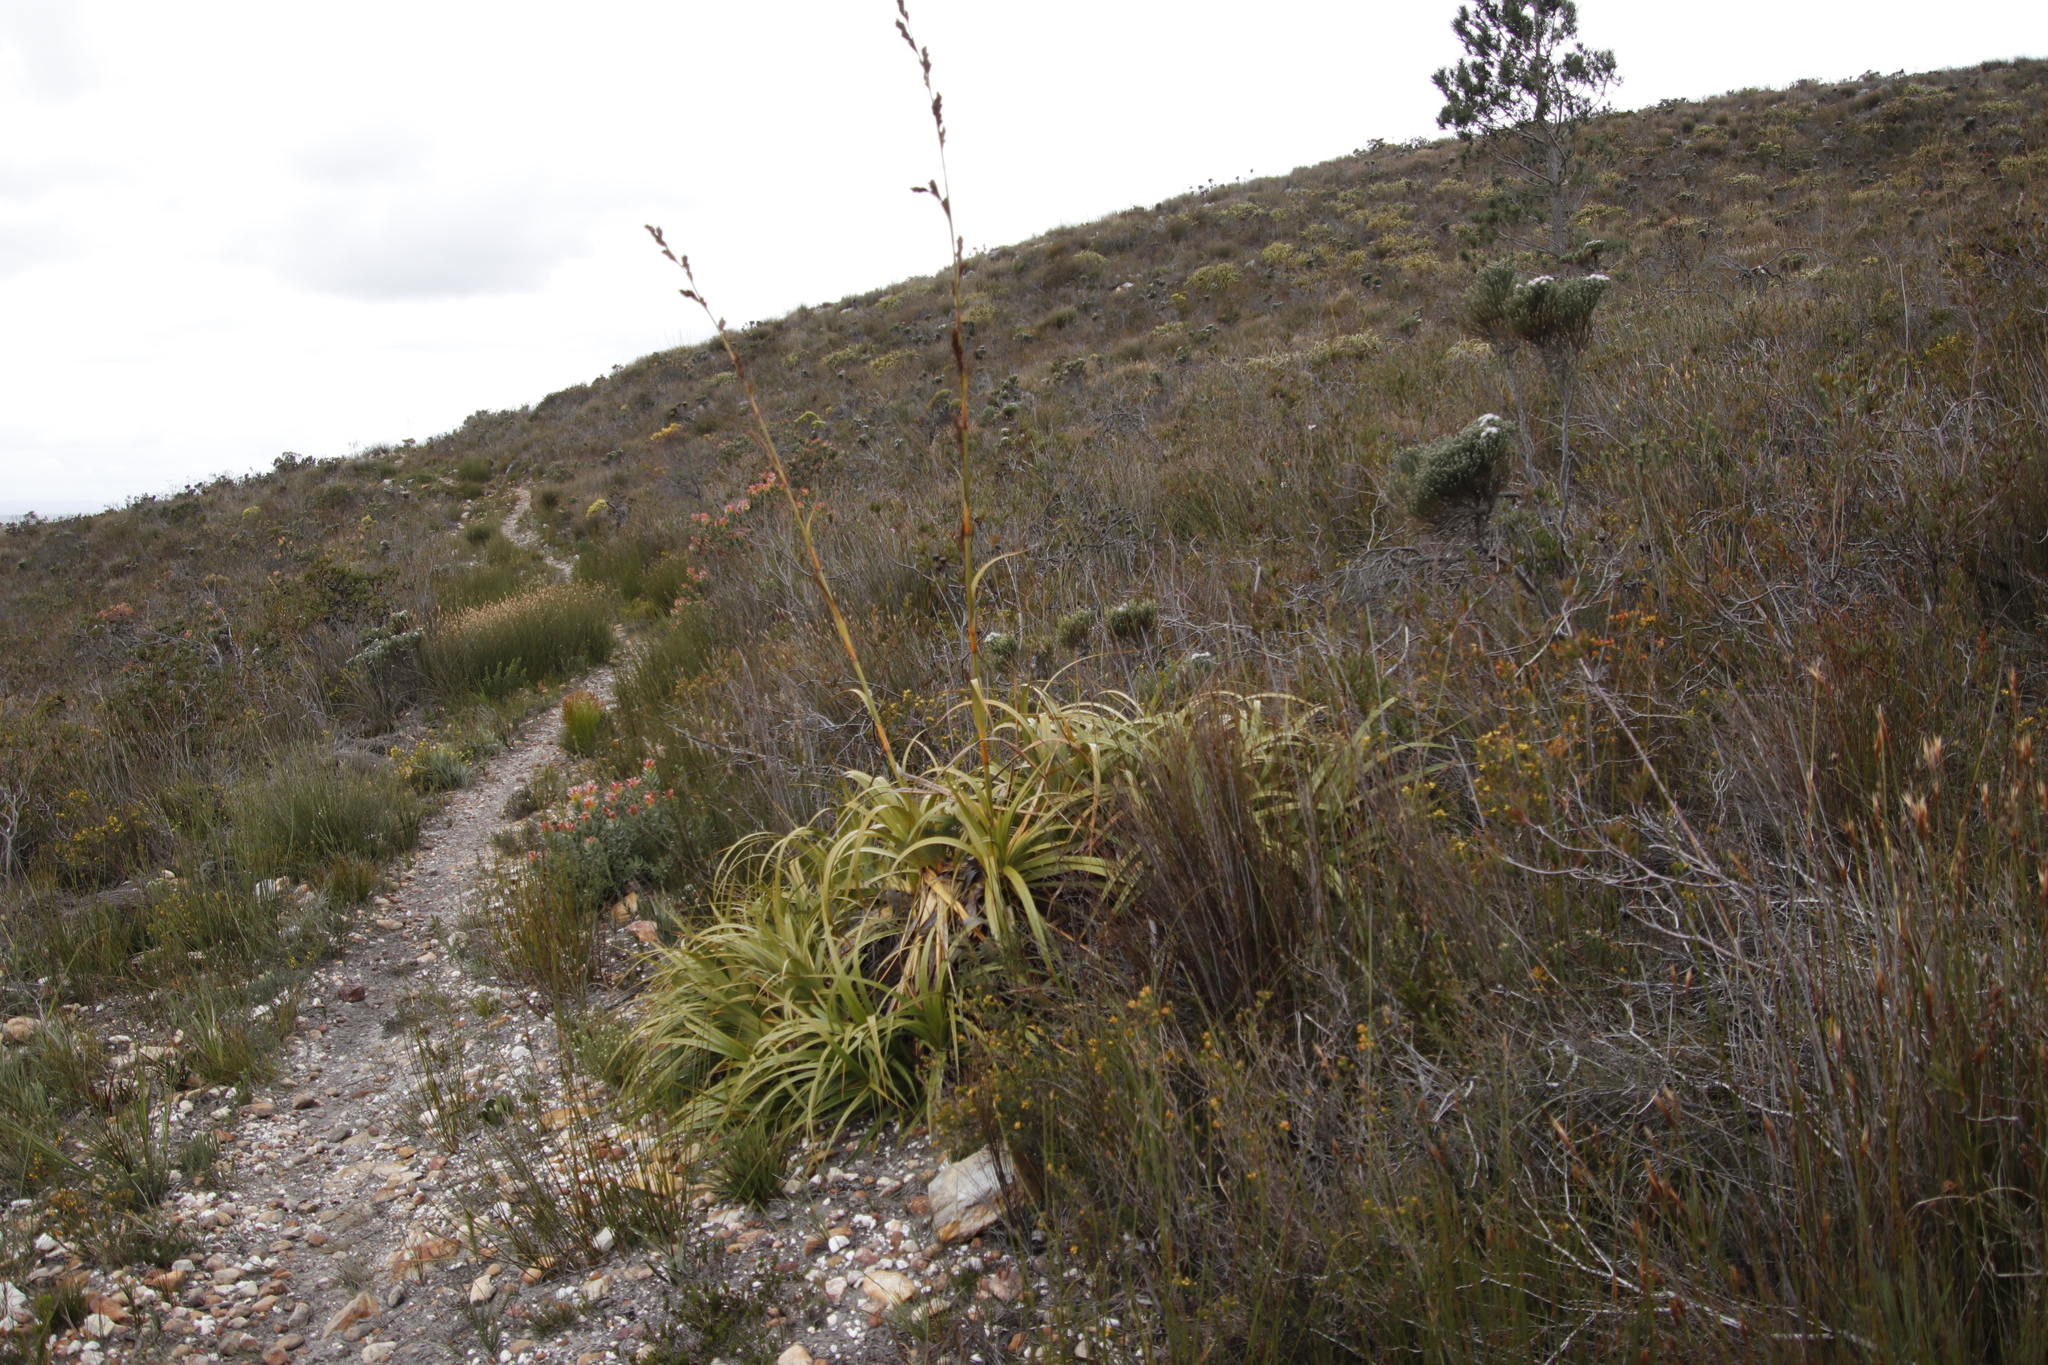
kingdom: Plantae
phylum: Tracheophyta
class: Liliopsida
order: Poales
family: Cyperaceae
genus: Tetraria
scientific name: Tetraria thermalis
